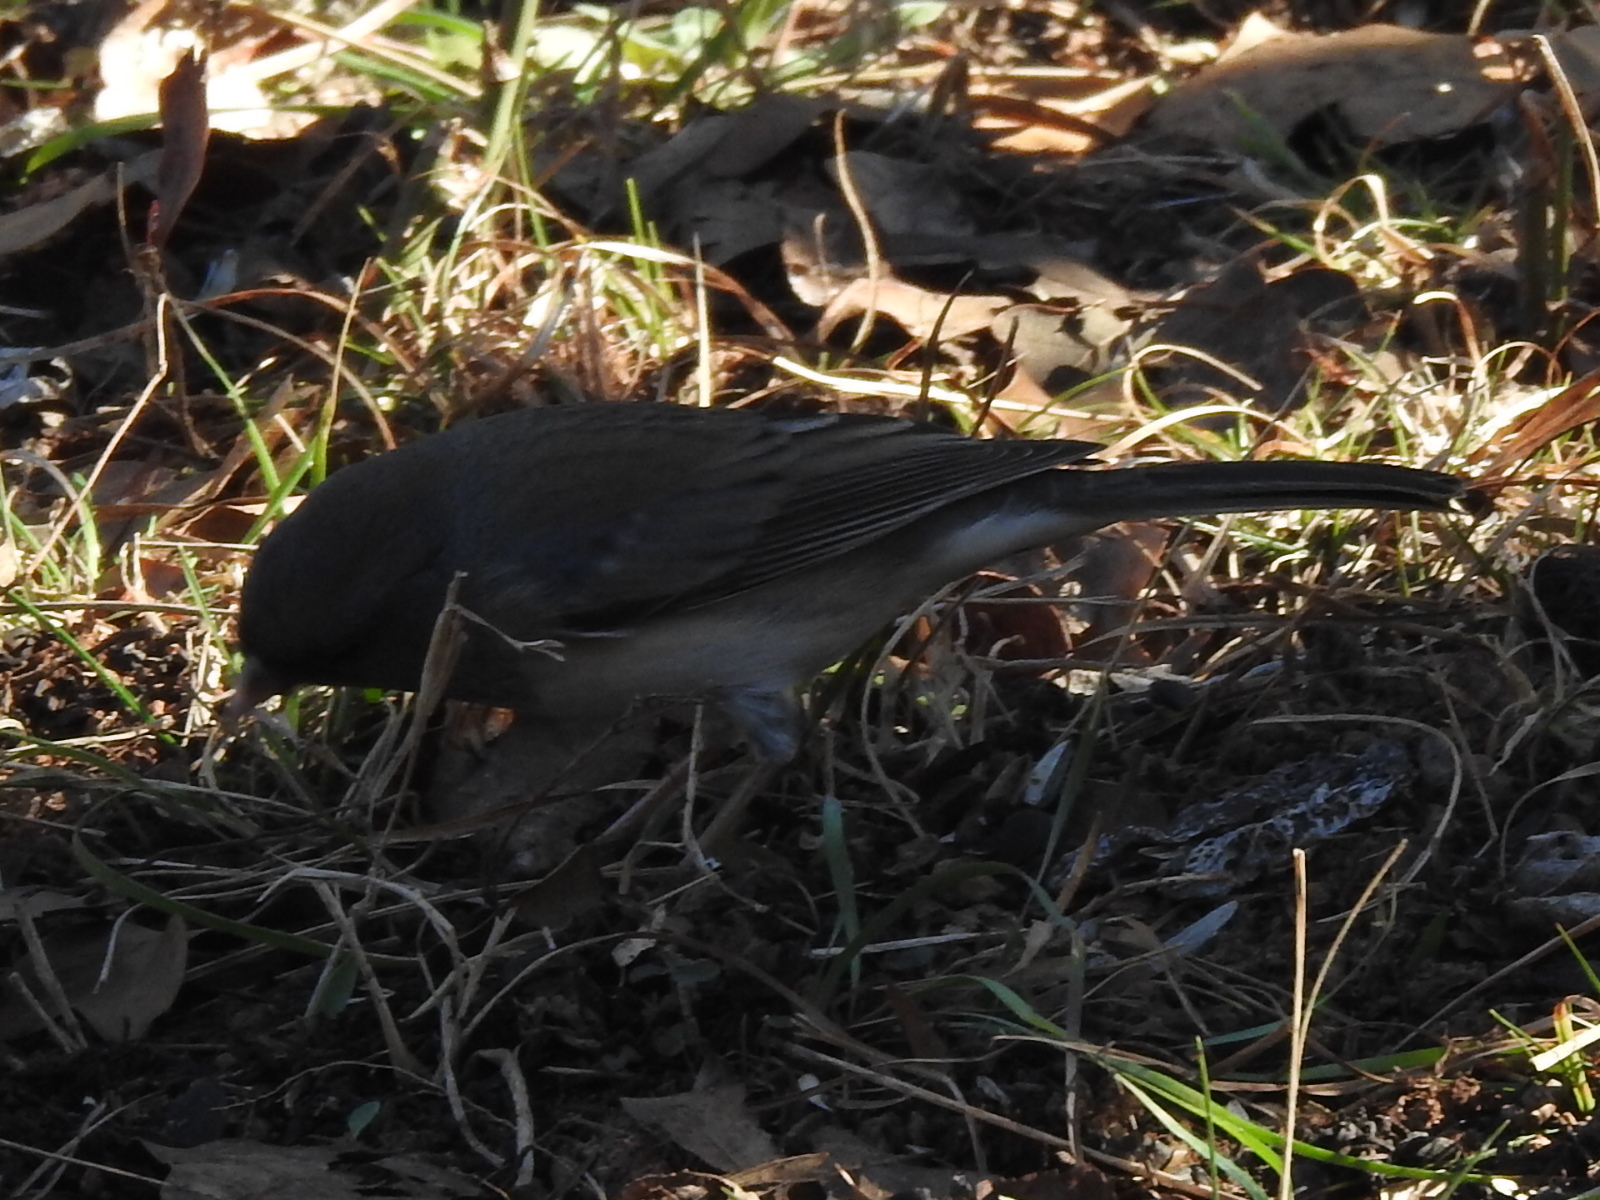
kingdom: Animalia
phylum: Chordata
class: Aves
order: Passeriformes
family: Passerellidae
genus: Junco
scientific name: Junco hyemalis
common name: Dark-eyed junco
